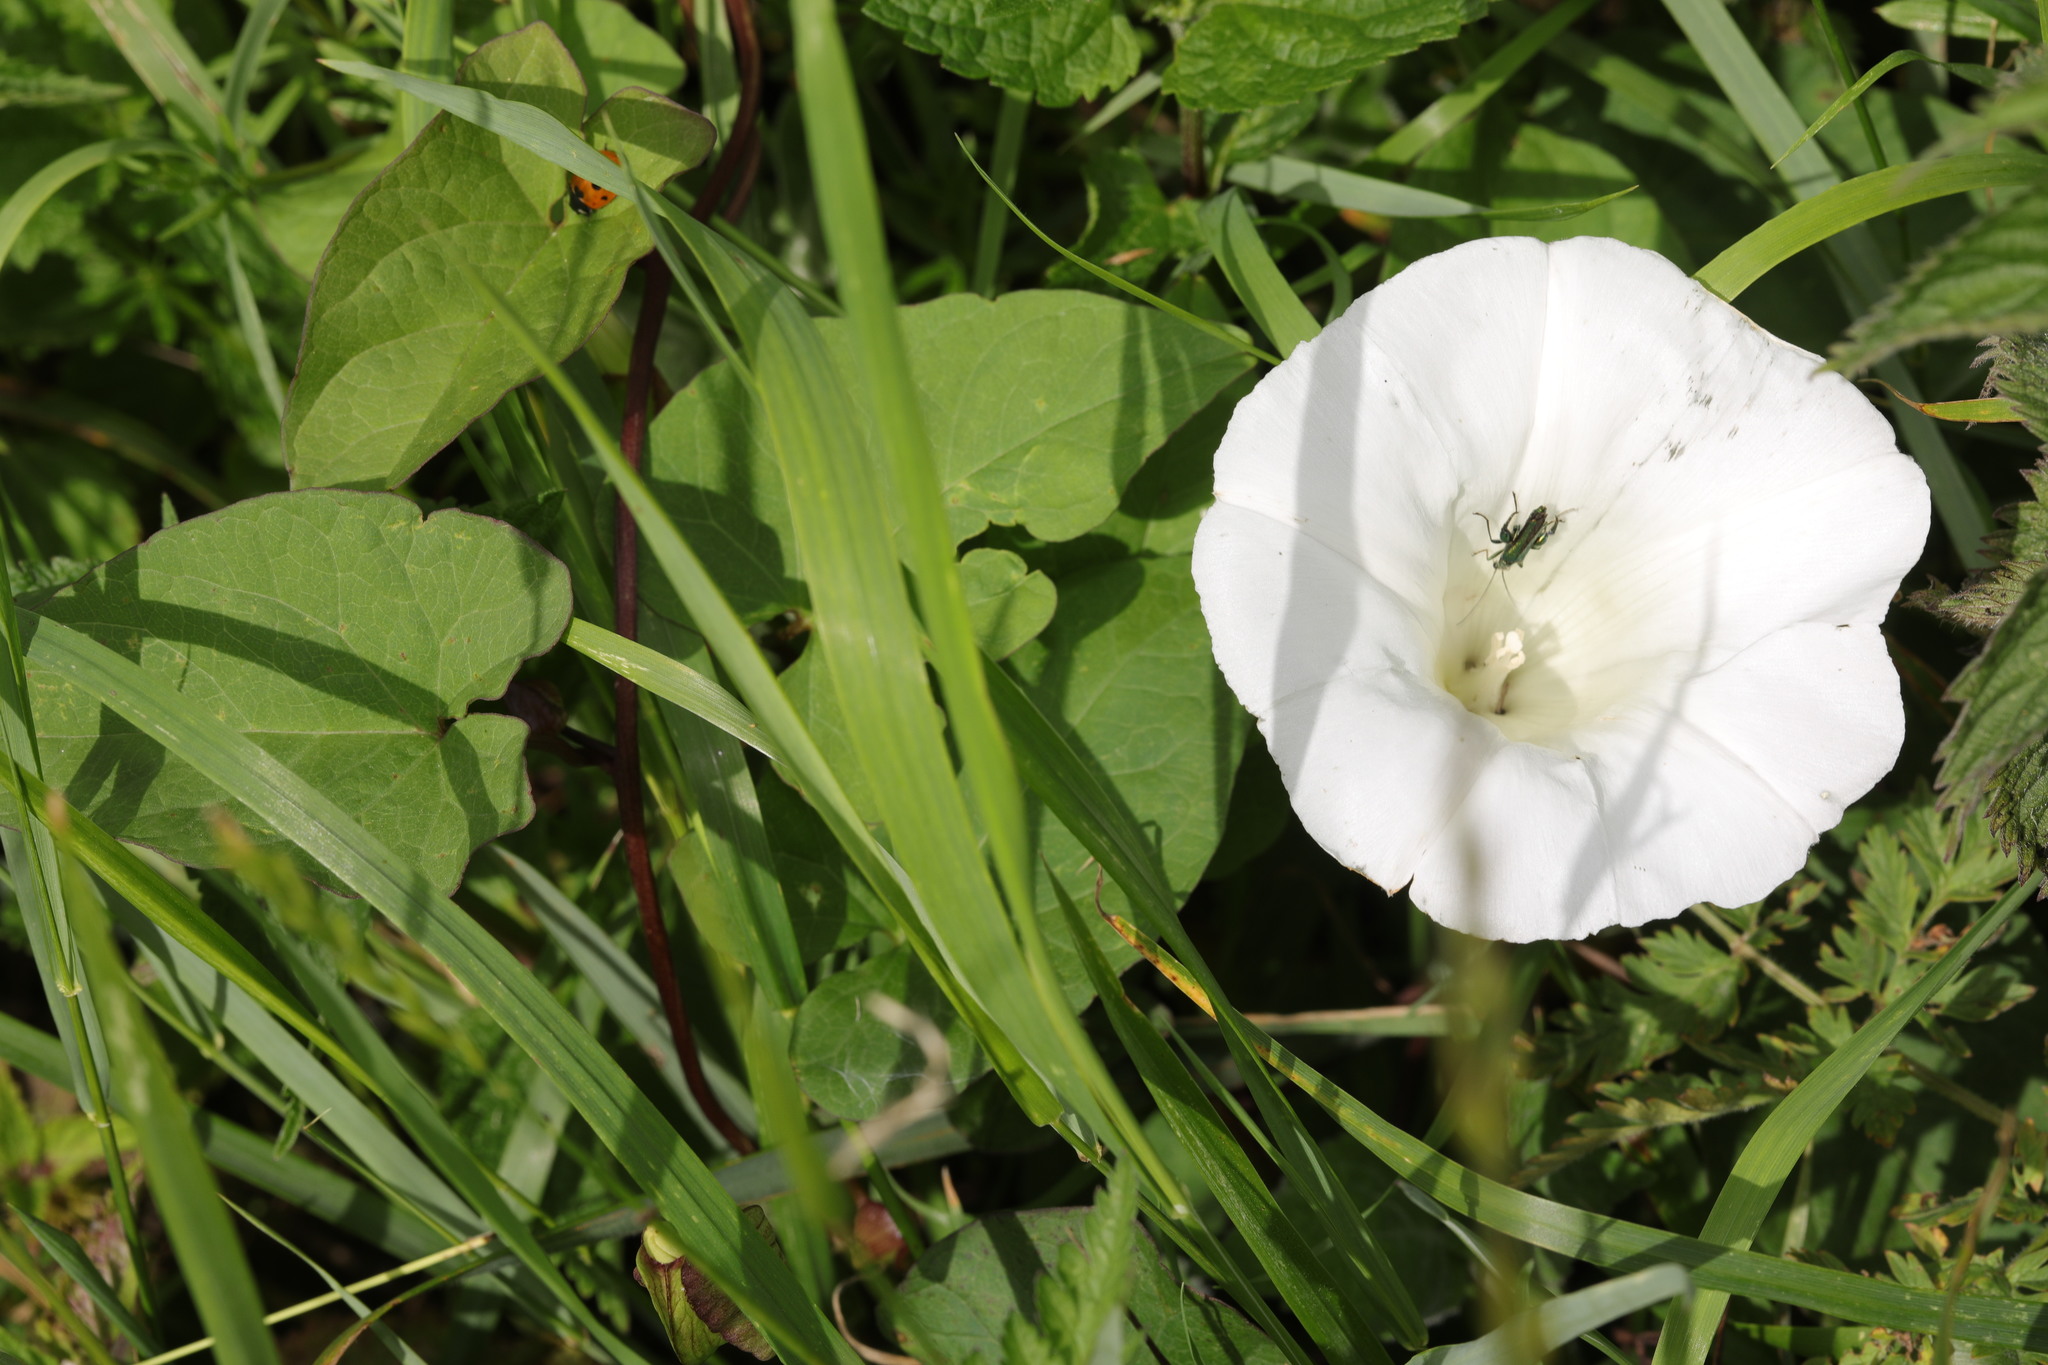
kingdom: Plantae
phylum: Tracheophyta
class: Magnoliopsida
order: Solanales
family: Convolvulaceae
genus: Calystegia
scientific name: Calystegia silvatica
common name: Large bindweed
